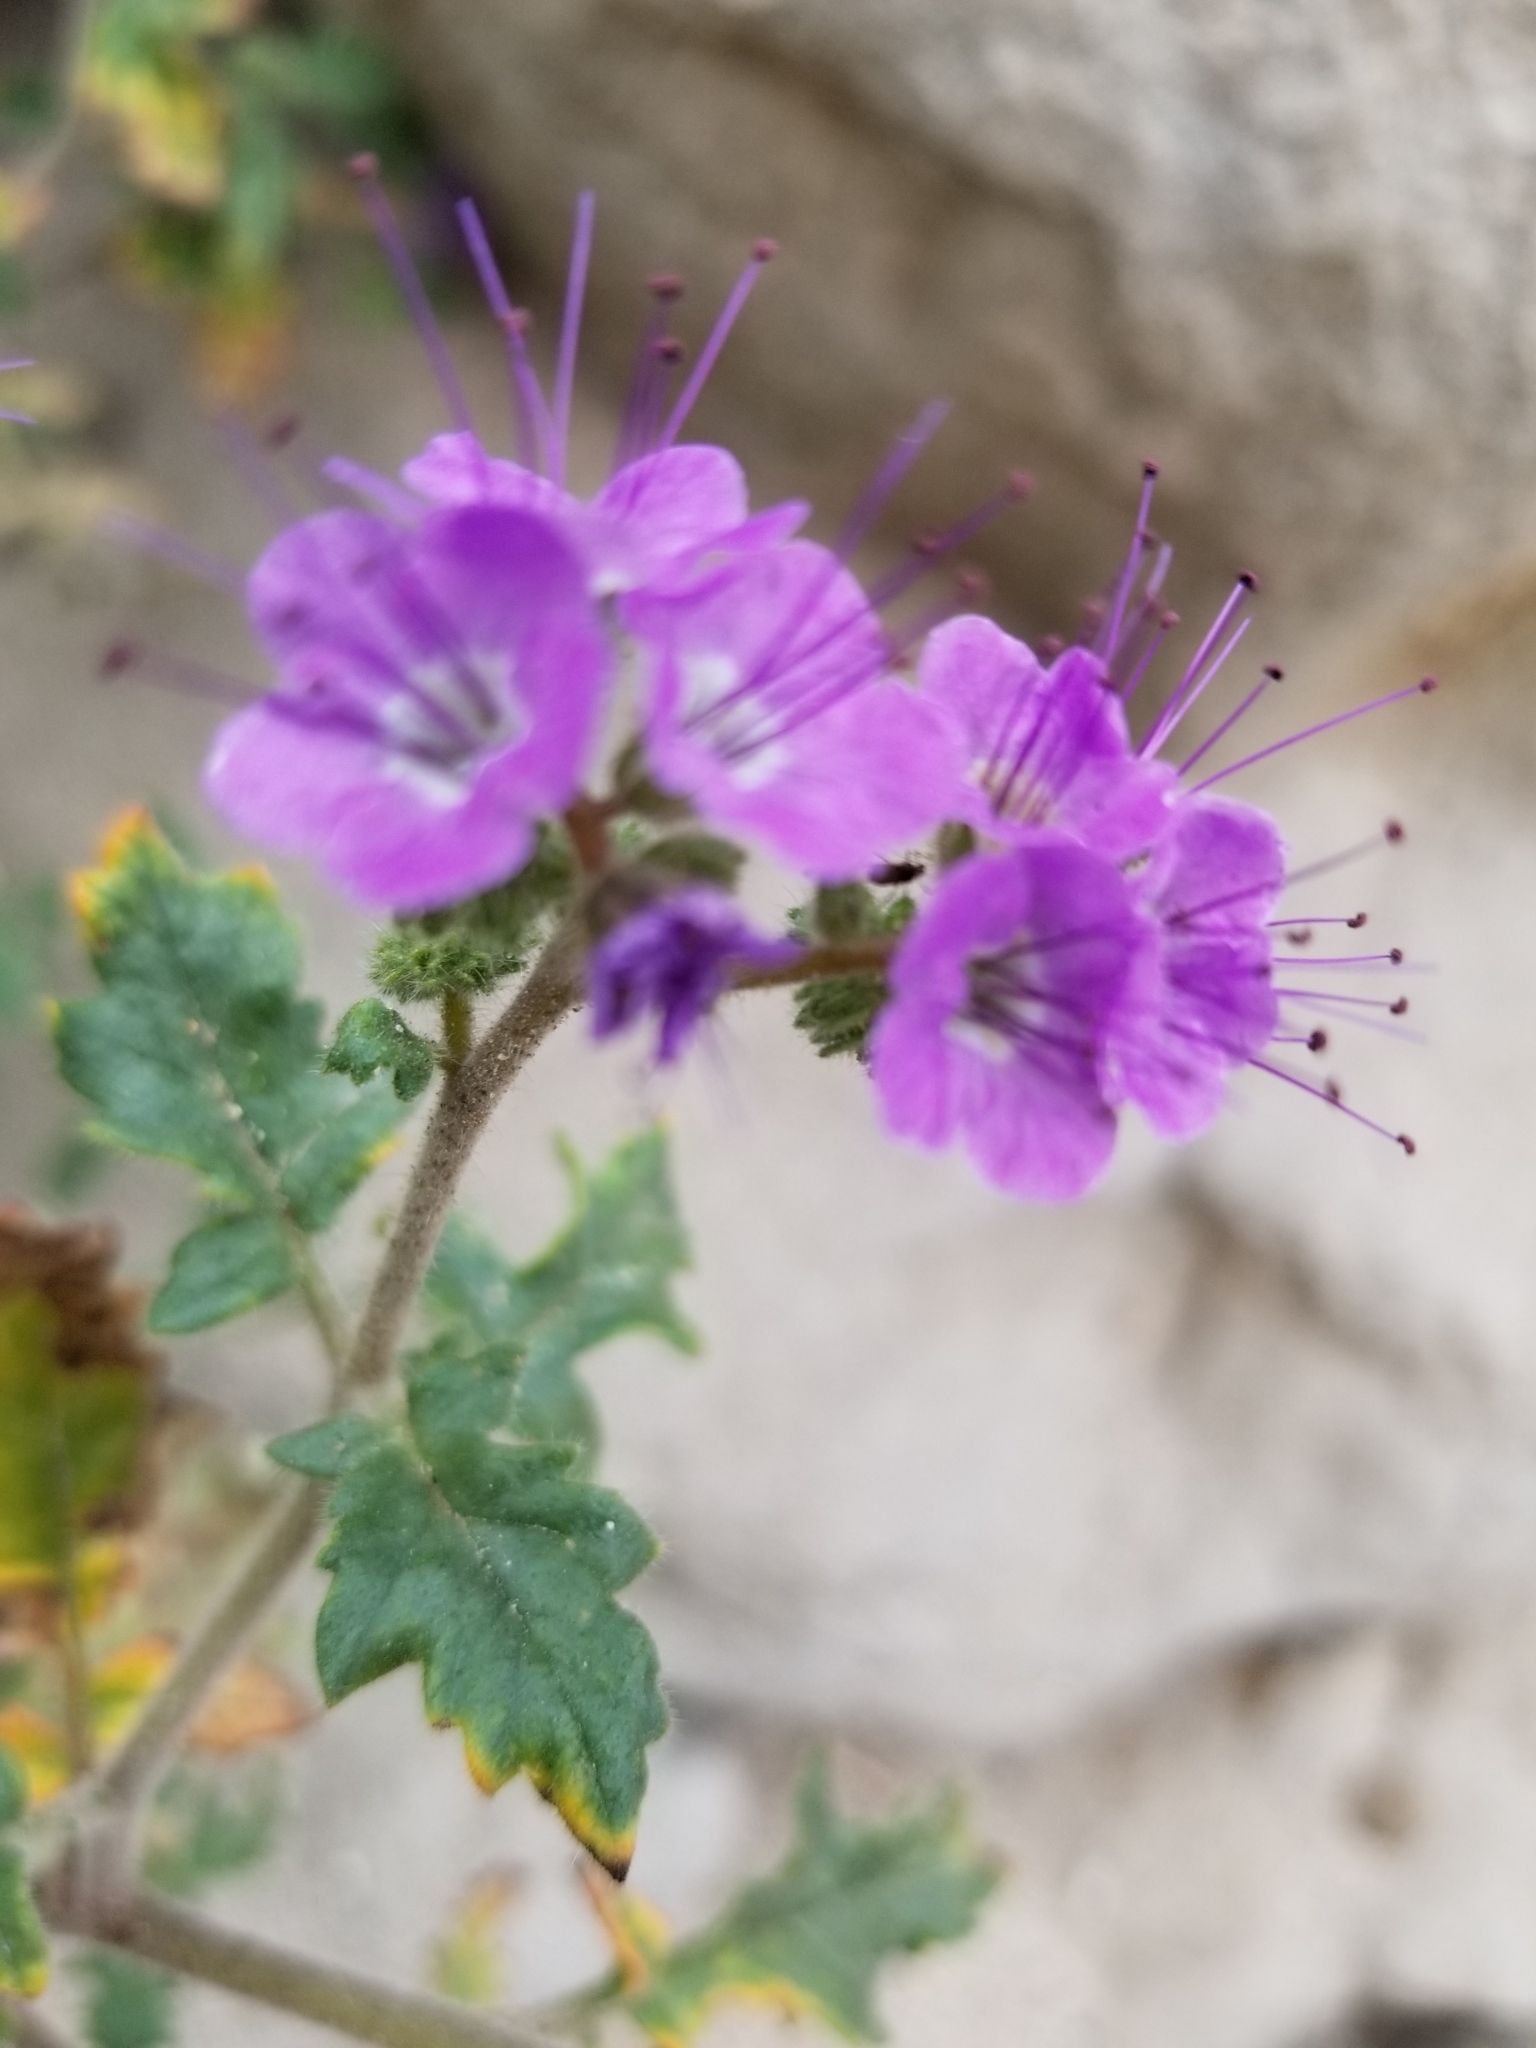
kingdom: Plantae
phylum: Tracheophyta
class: Magnoliopsida
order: Boraginales
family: Hydrophyllaceae
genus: Phacelia
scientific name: Phacelia crenulata
